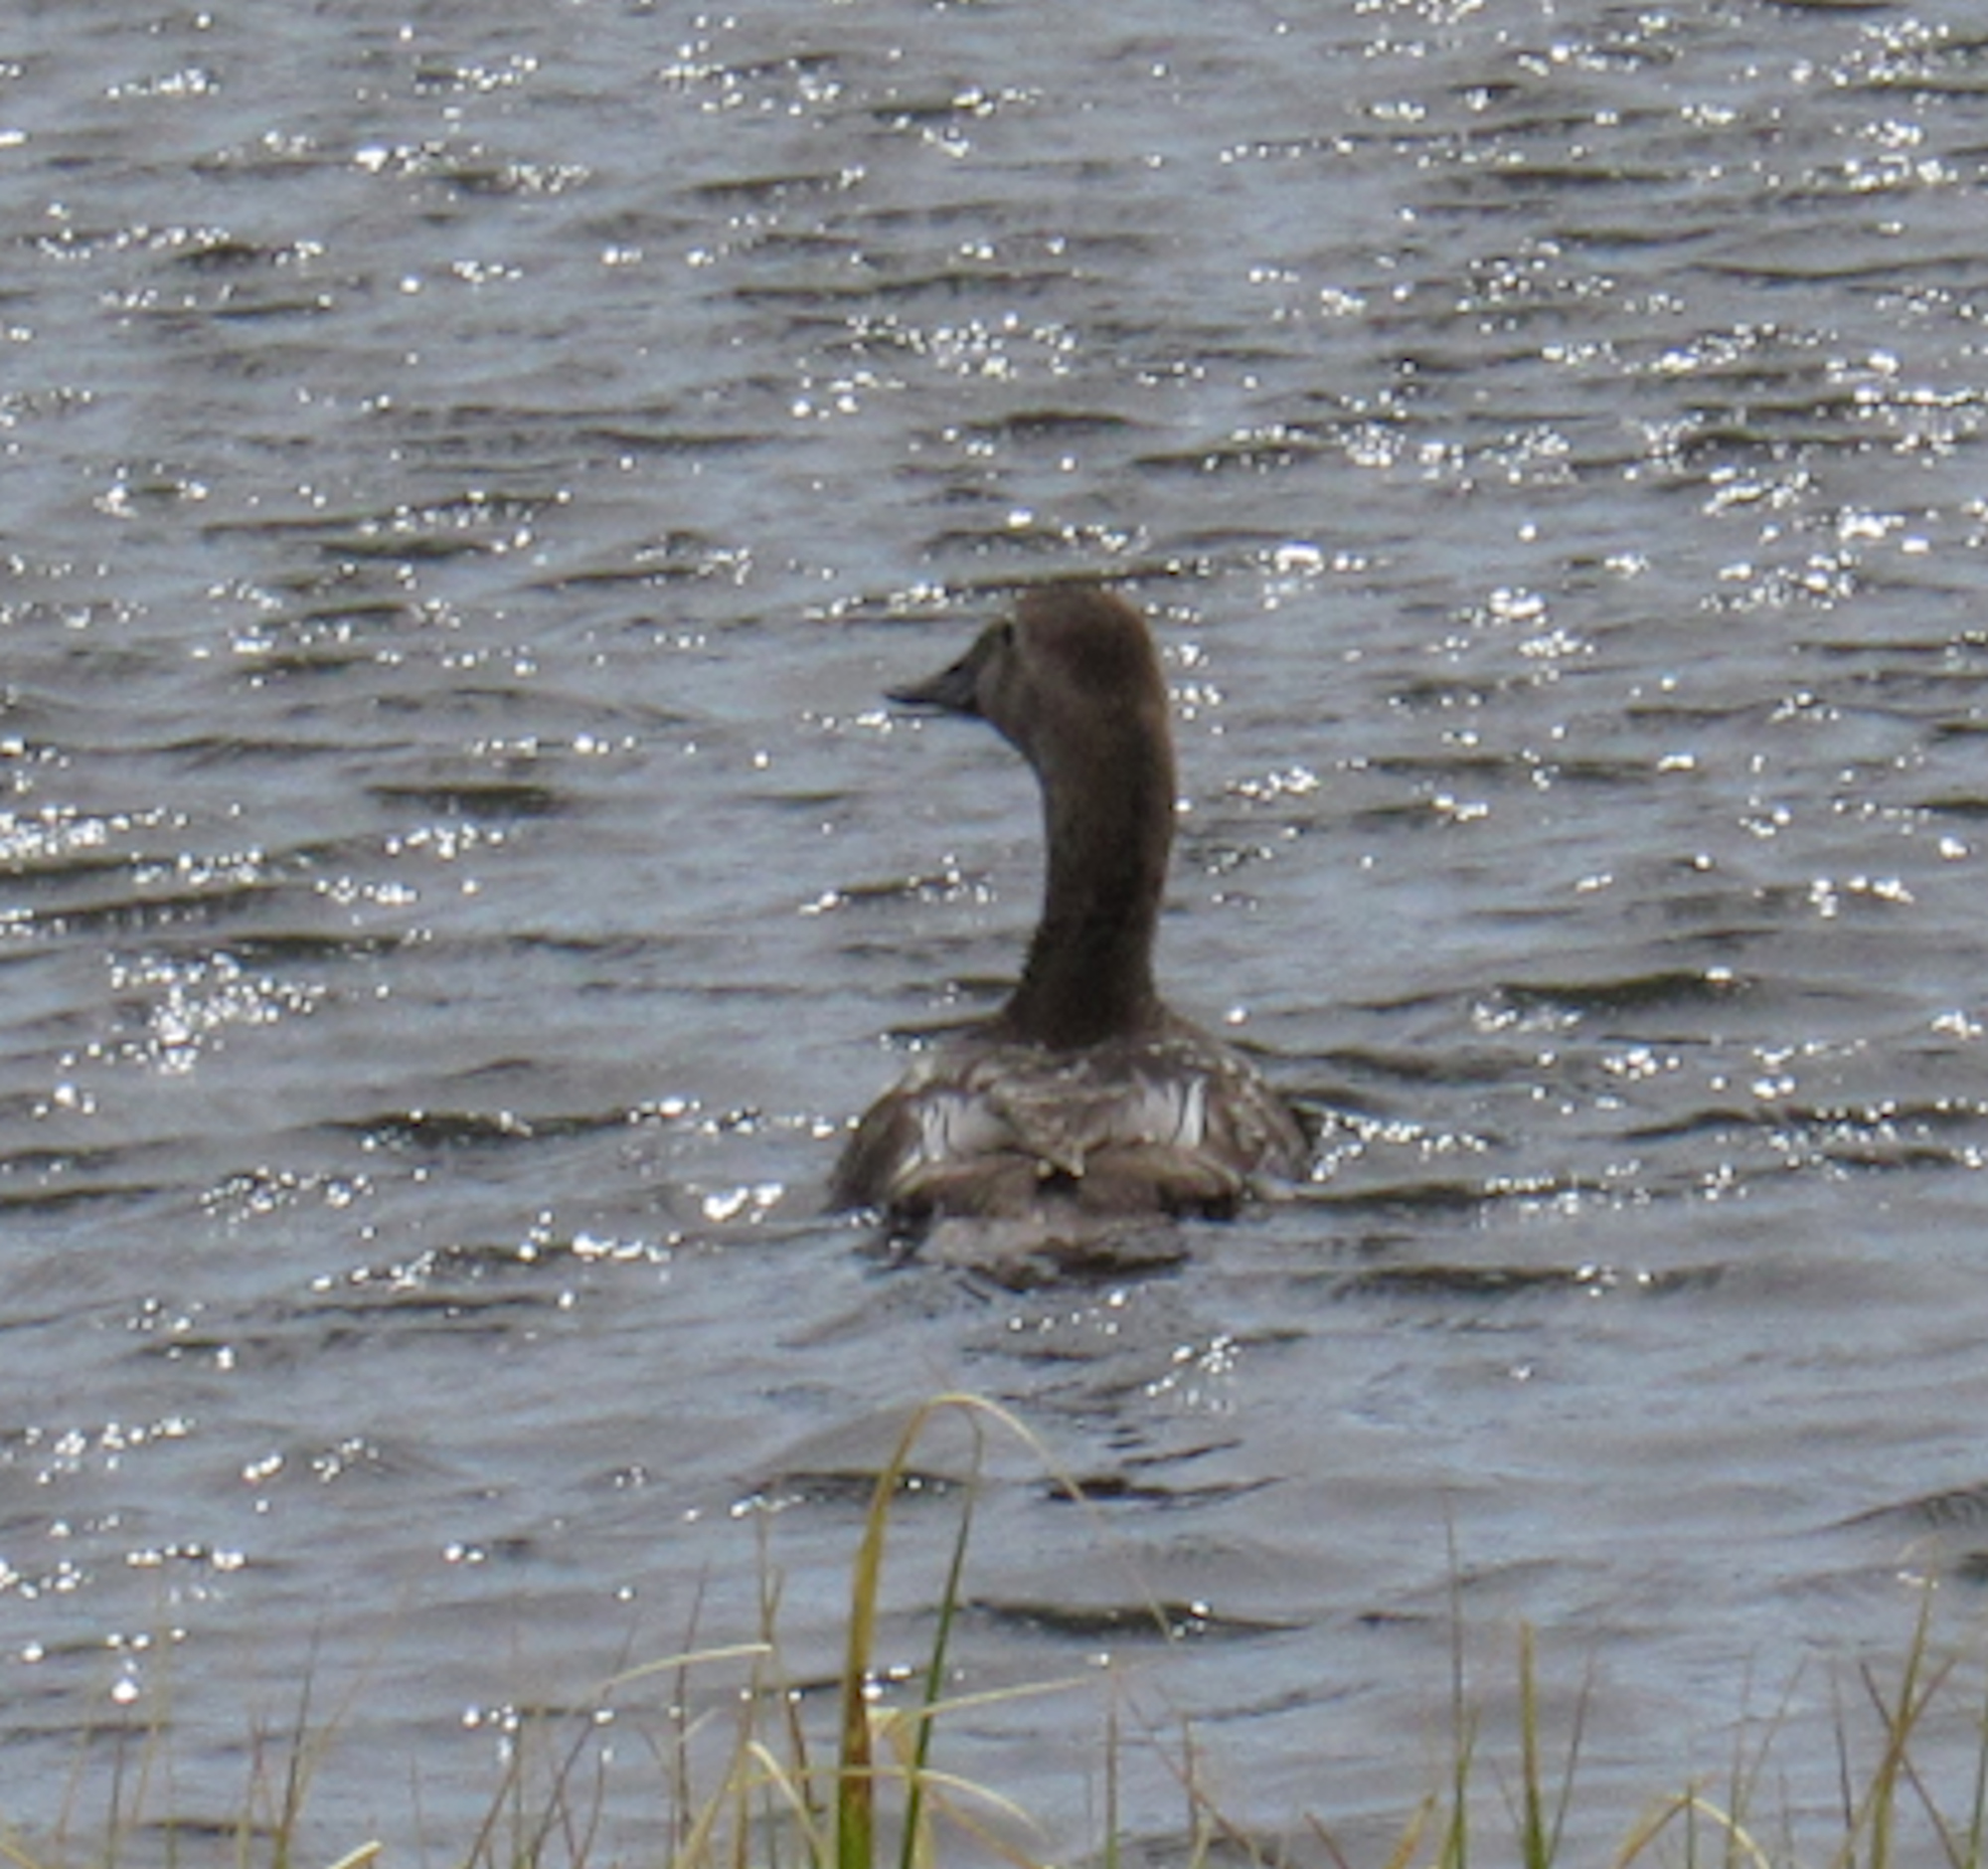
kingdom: Animalia
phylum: Chordata
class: Aves
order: Anseriformes
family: Anatidae
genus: Aythya
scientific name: Aythya valisineria
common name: Canvasback
